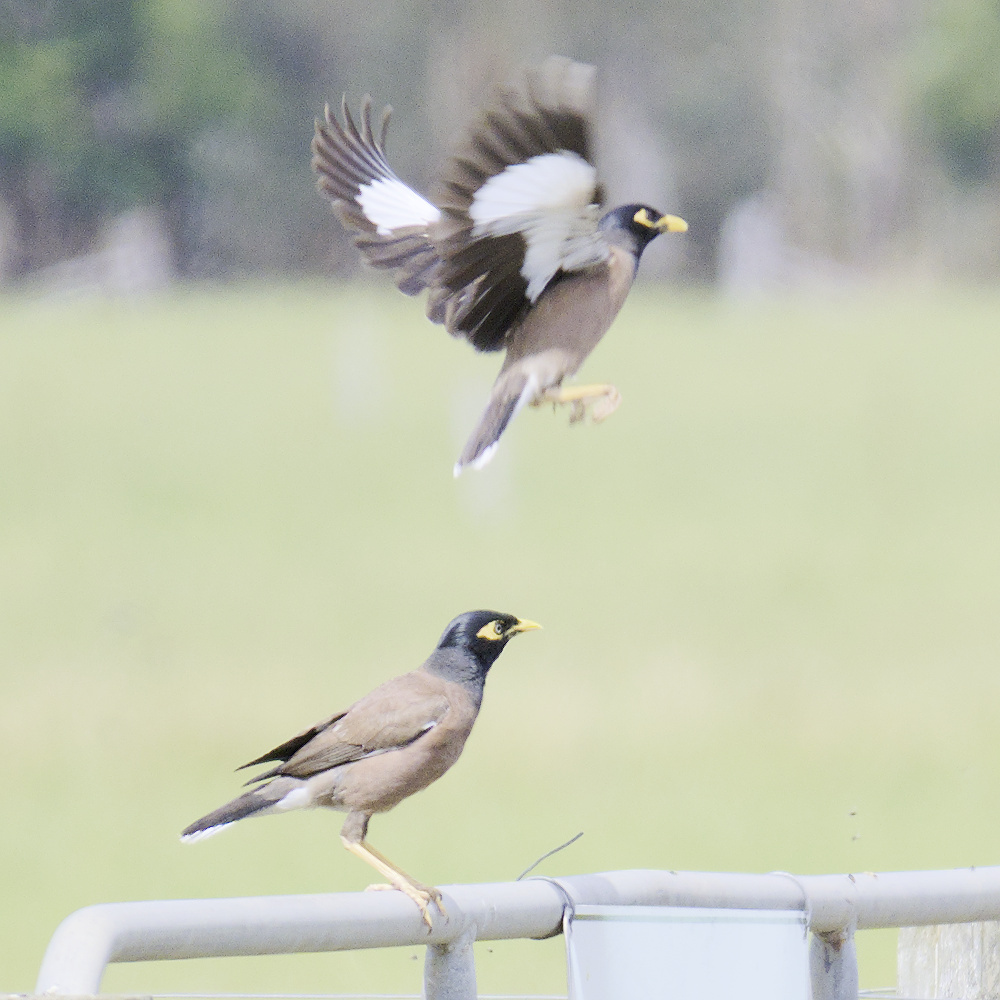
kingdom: Animalia
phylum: Chordata
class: Aves
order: Passeriformes
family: Sturnidae
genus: Acridotheres
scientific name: Acridotheres tristis
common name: Common myna
